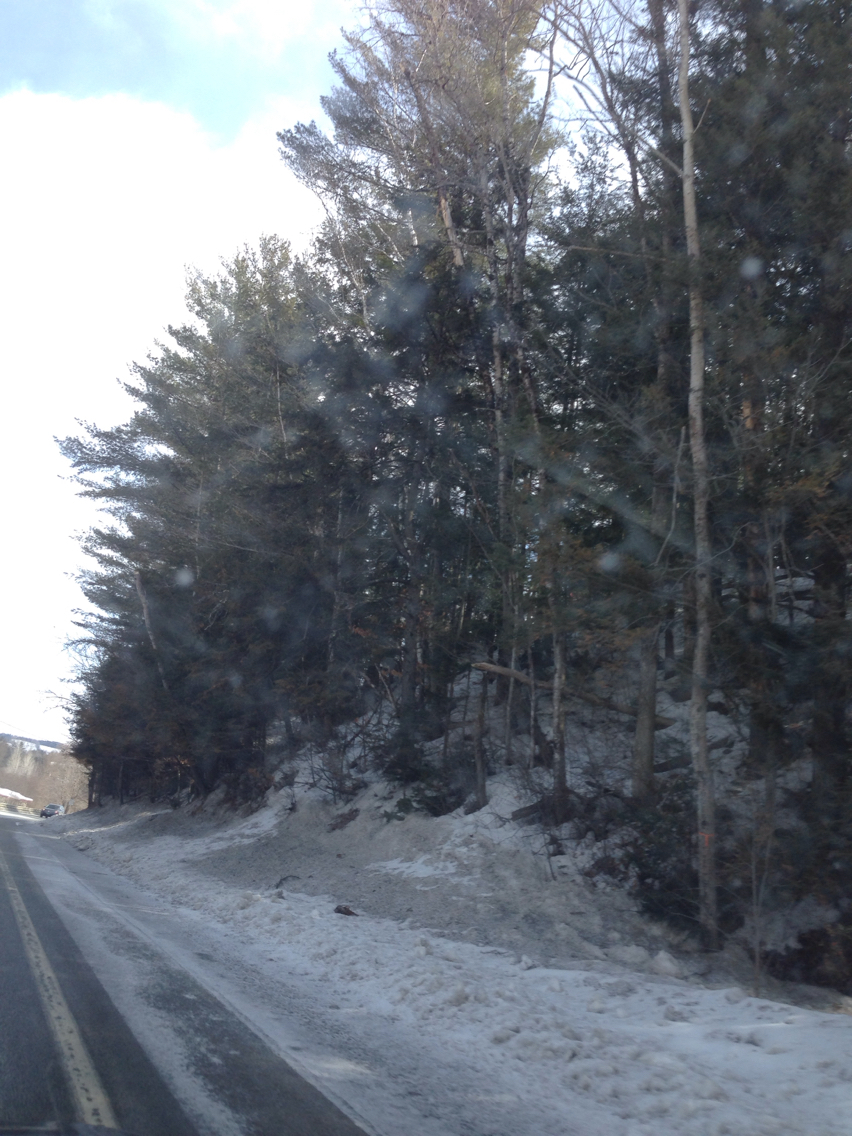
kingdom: Plantae
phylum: Tracheophyta
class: Pinopsida
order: Pinales
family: Pinaceae
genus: Pinus
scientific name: Pinus strobus
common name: Weymouth pine
